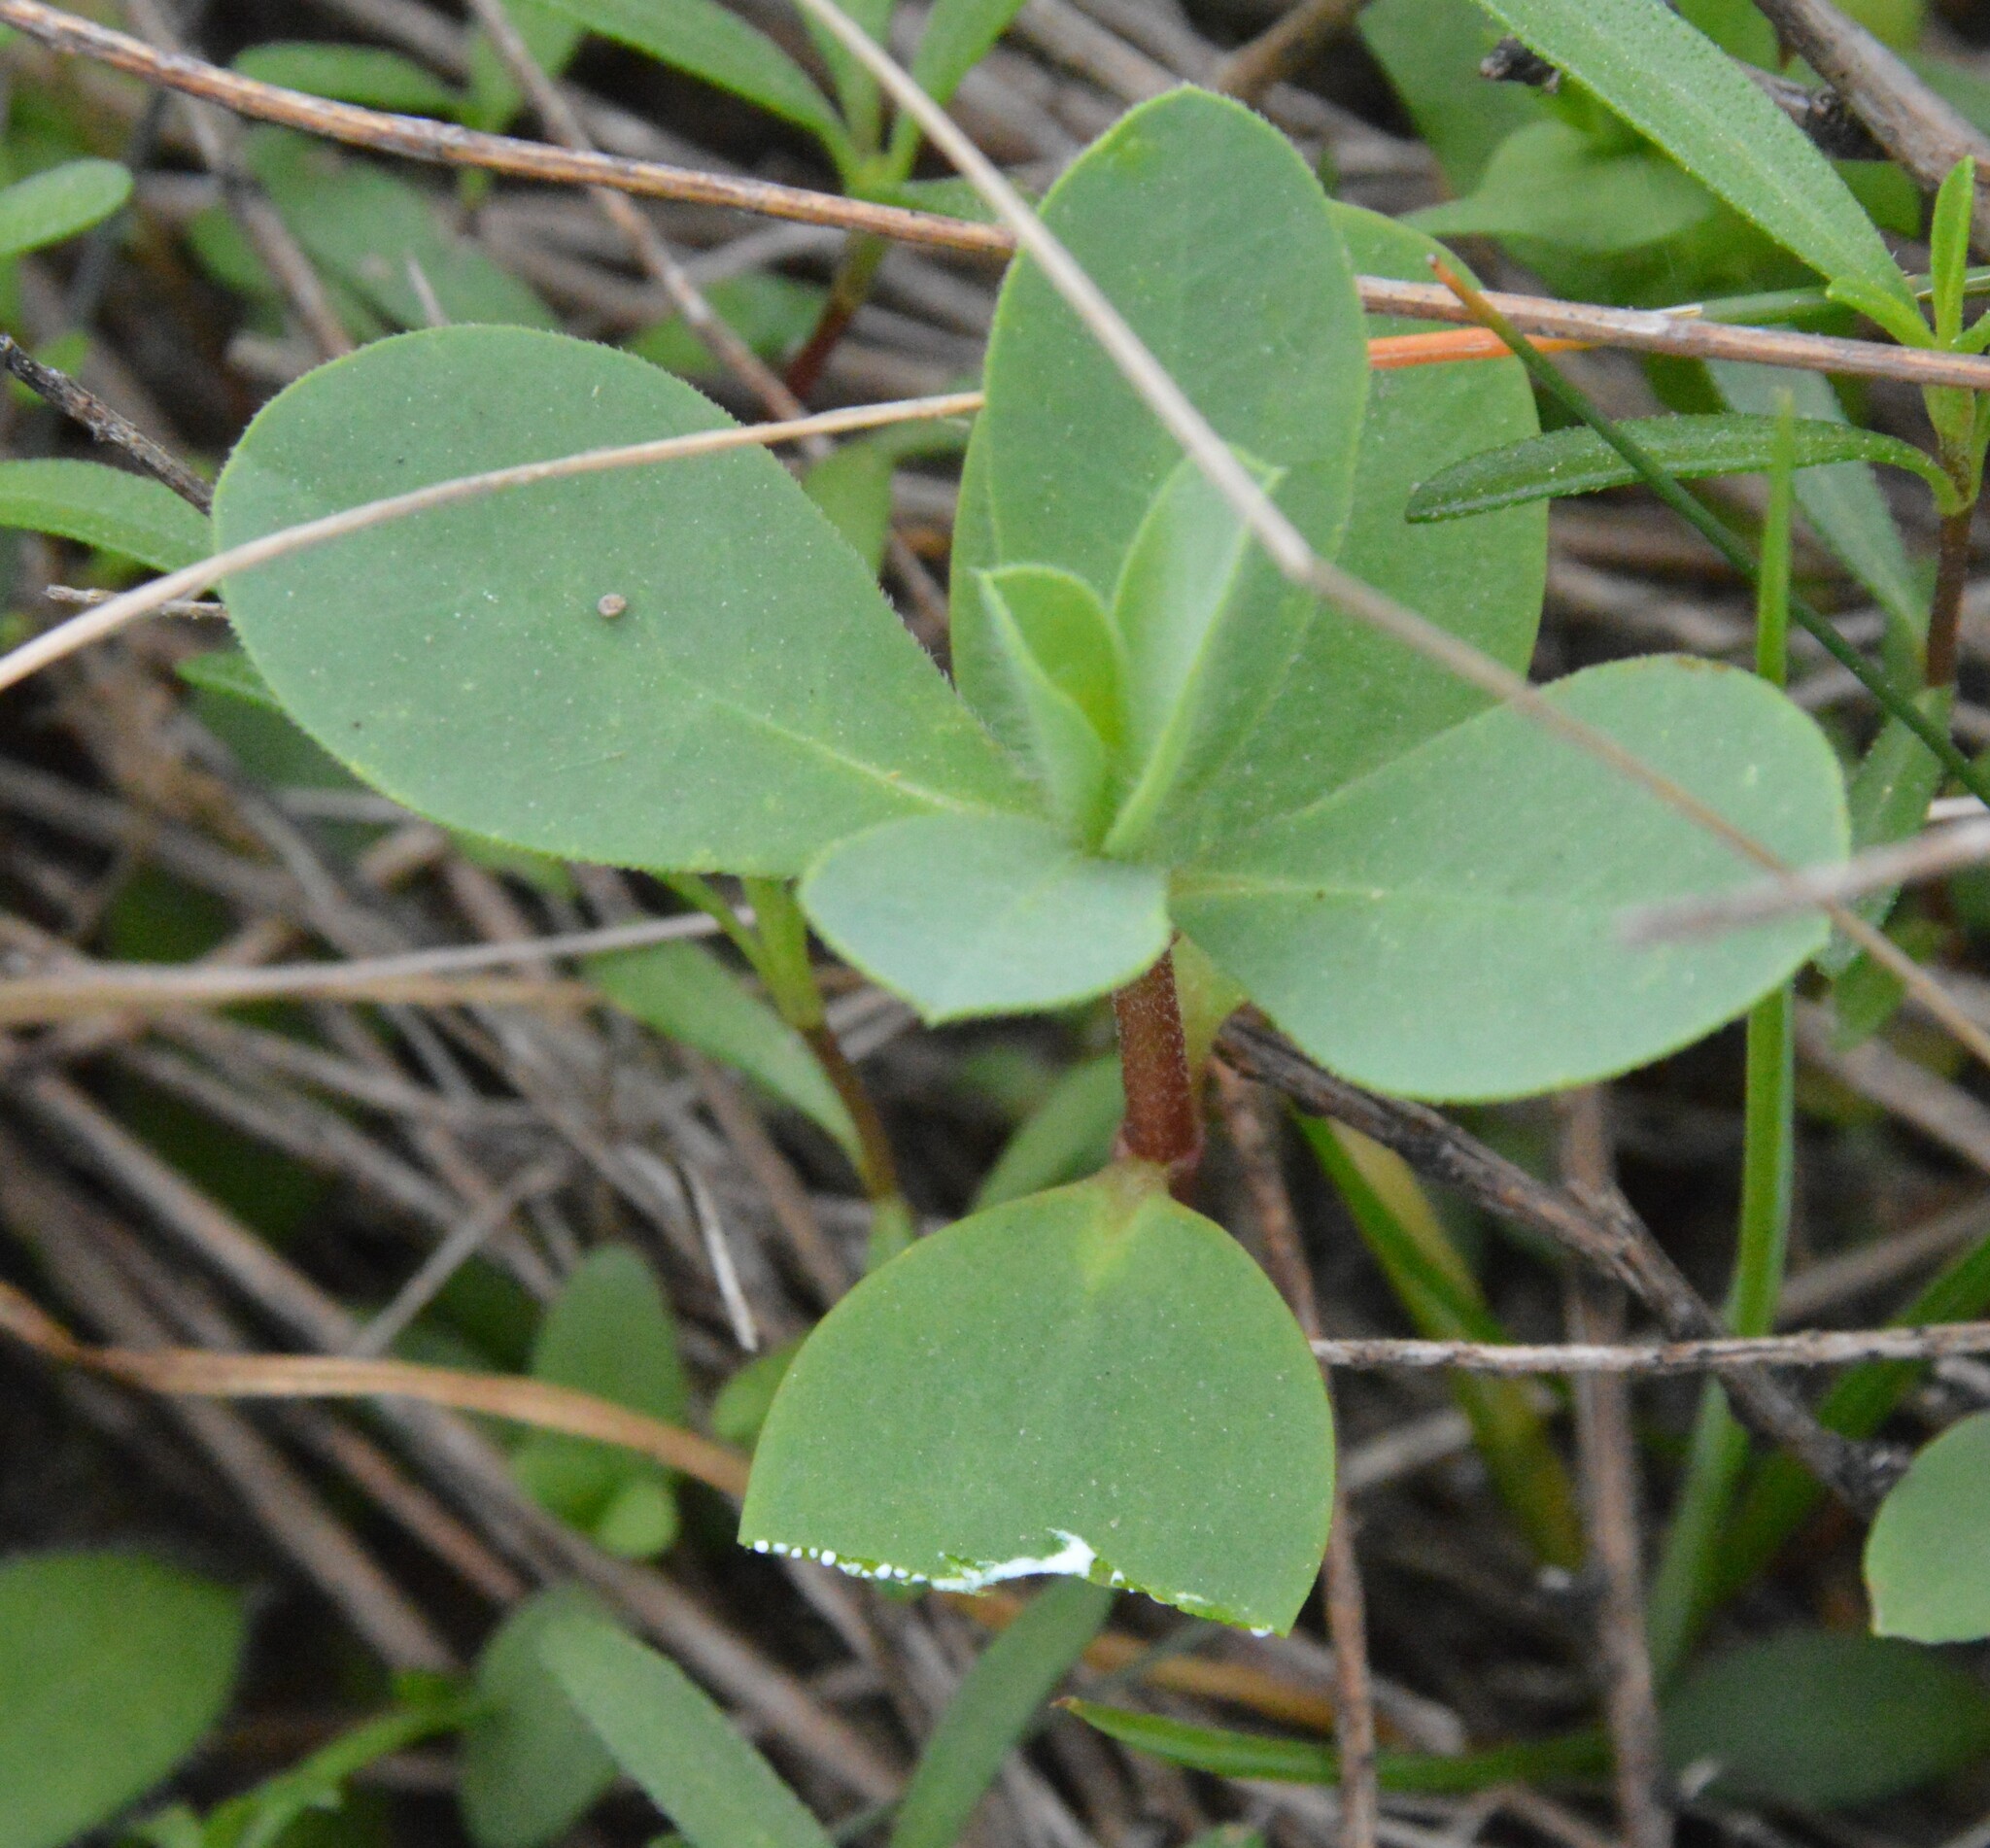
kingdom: Plantae
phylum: Tracheophyta
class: Magnoliopsida
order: Malpighiales
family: Euphorbiaceae
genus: Euphorbia
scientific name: Euphorbia bicolor
